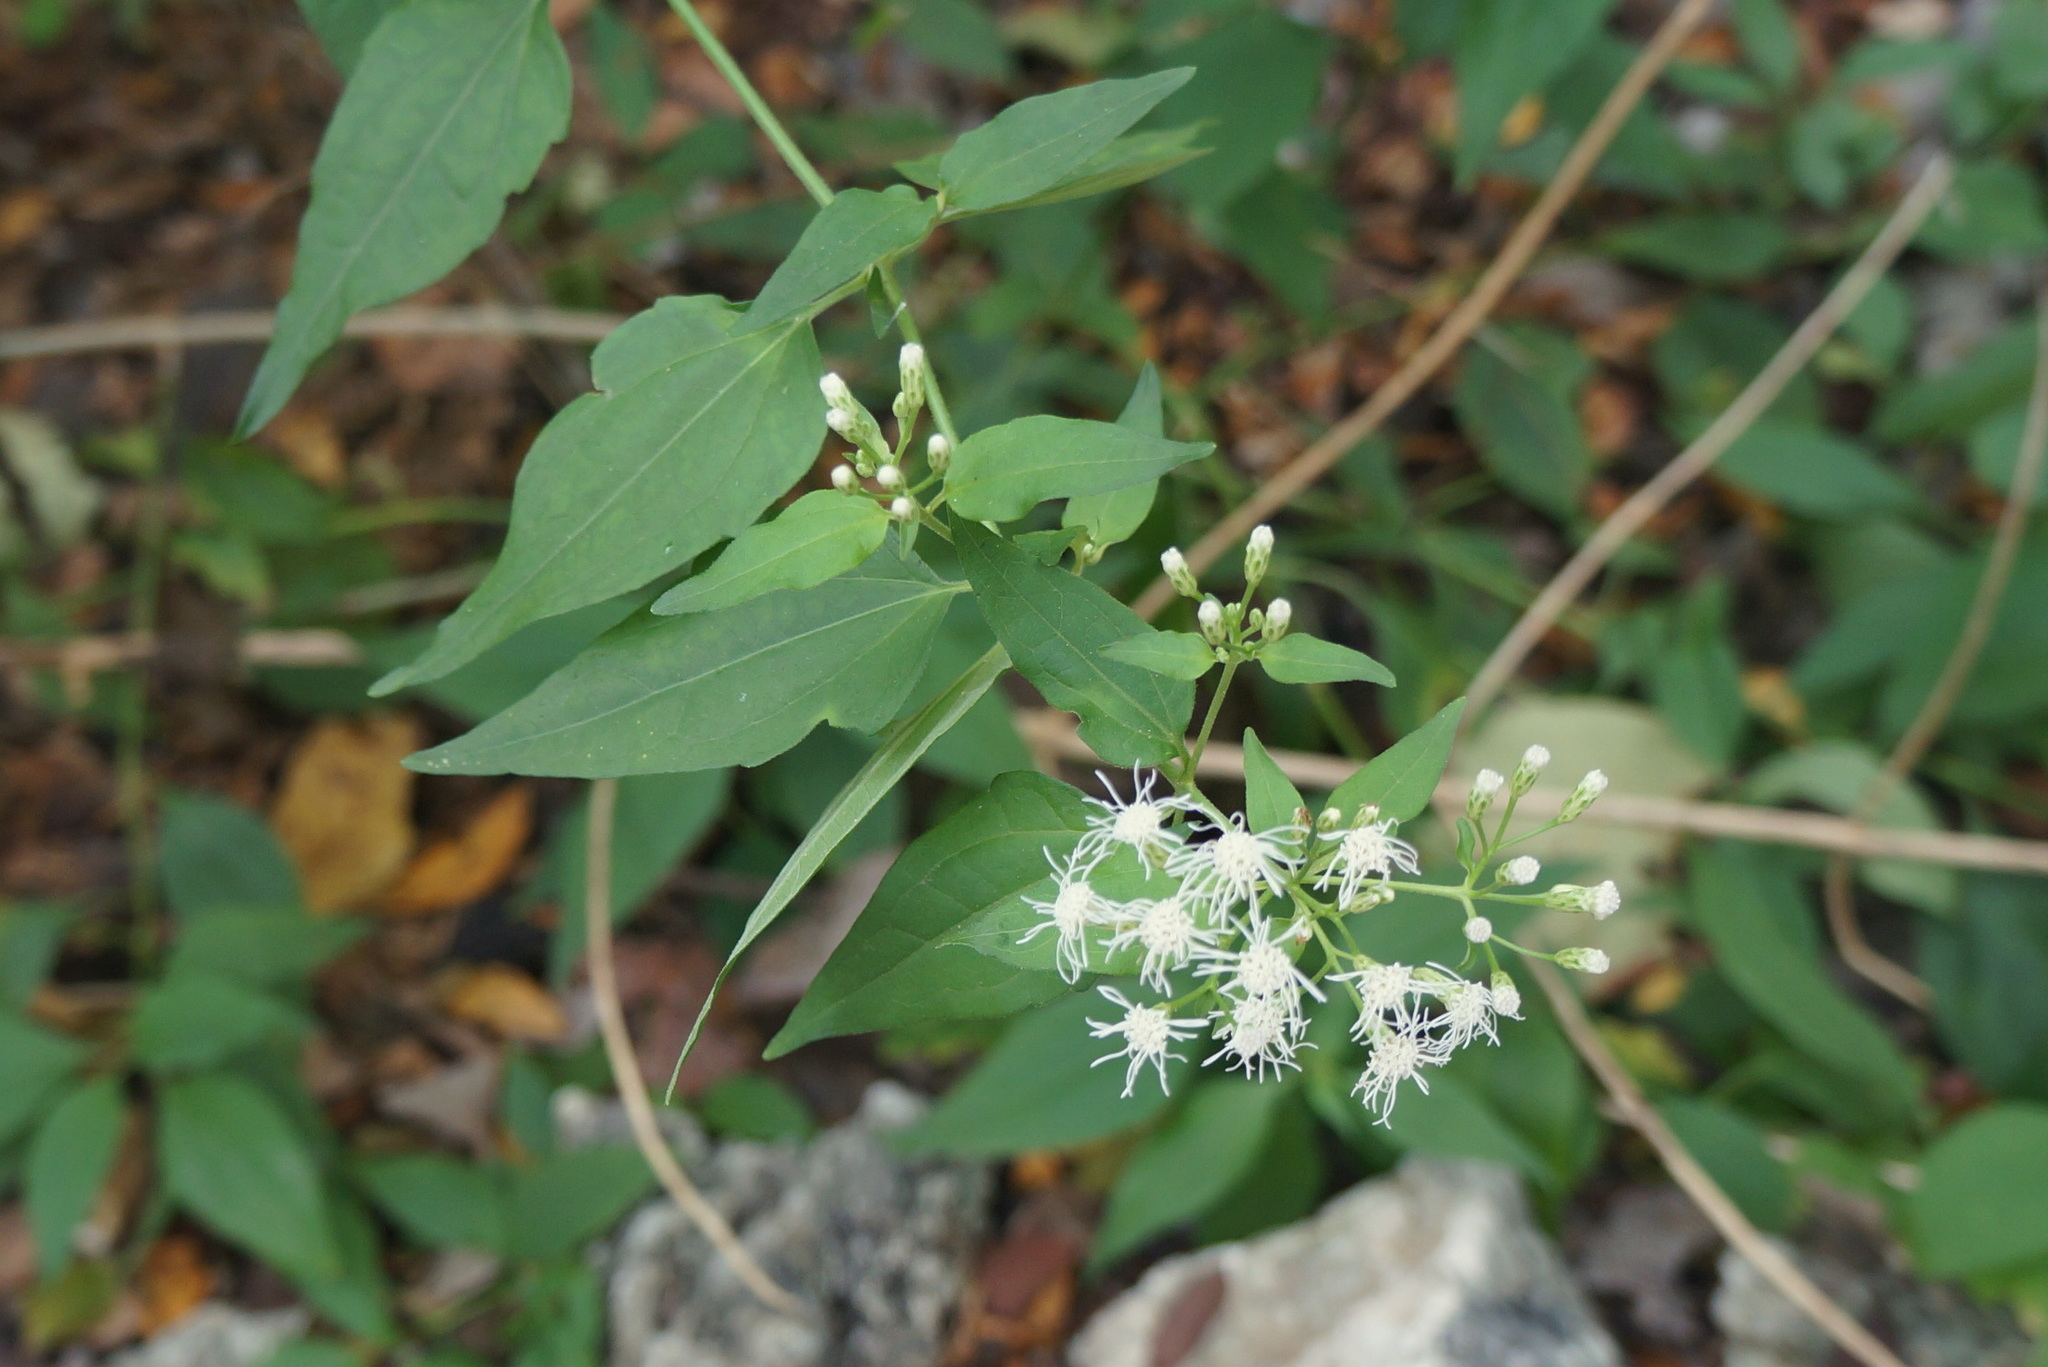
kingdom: Plantae
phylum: Tracheophyta
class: Magnoliopsida
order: Asterales
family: Asteraceae
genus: Chromolaena
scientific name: Chromolaena odorata
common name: Siamweed
